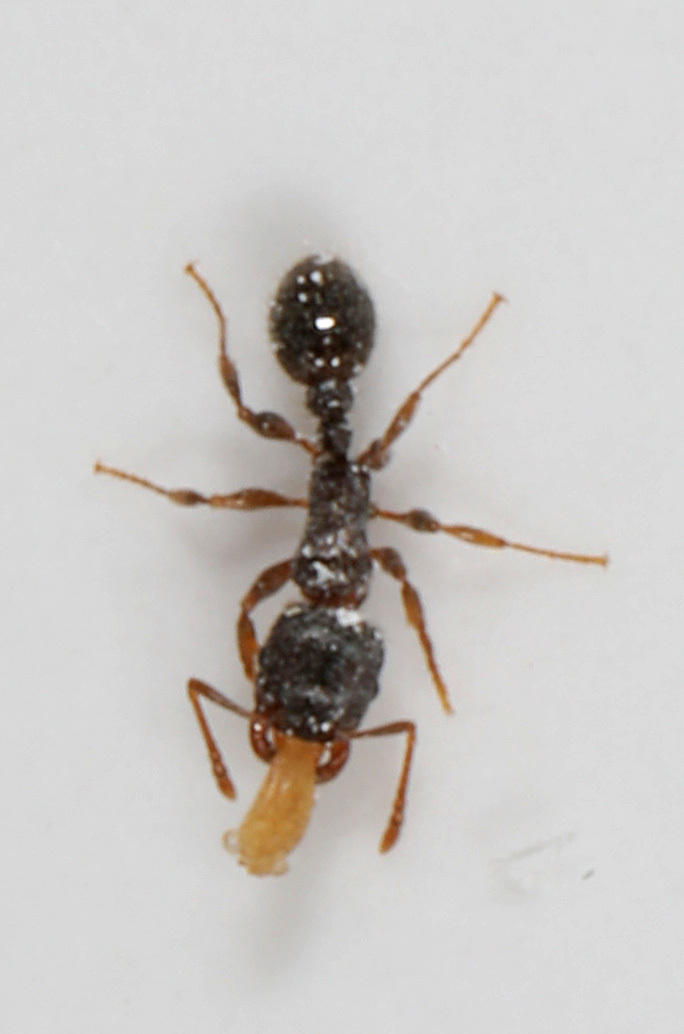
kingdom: Animalia
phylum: Arthropoda
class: Insecta
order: Hymenoptera
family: Formicidae
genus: Tetramorium
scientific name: Tetramorium immigrans
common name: Pavement ant
